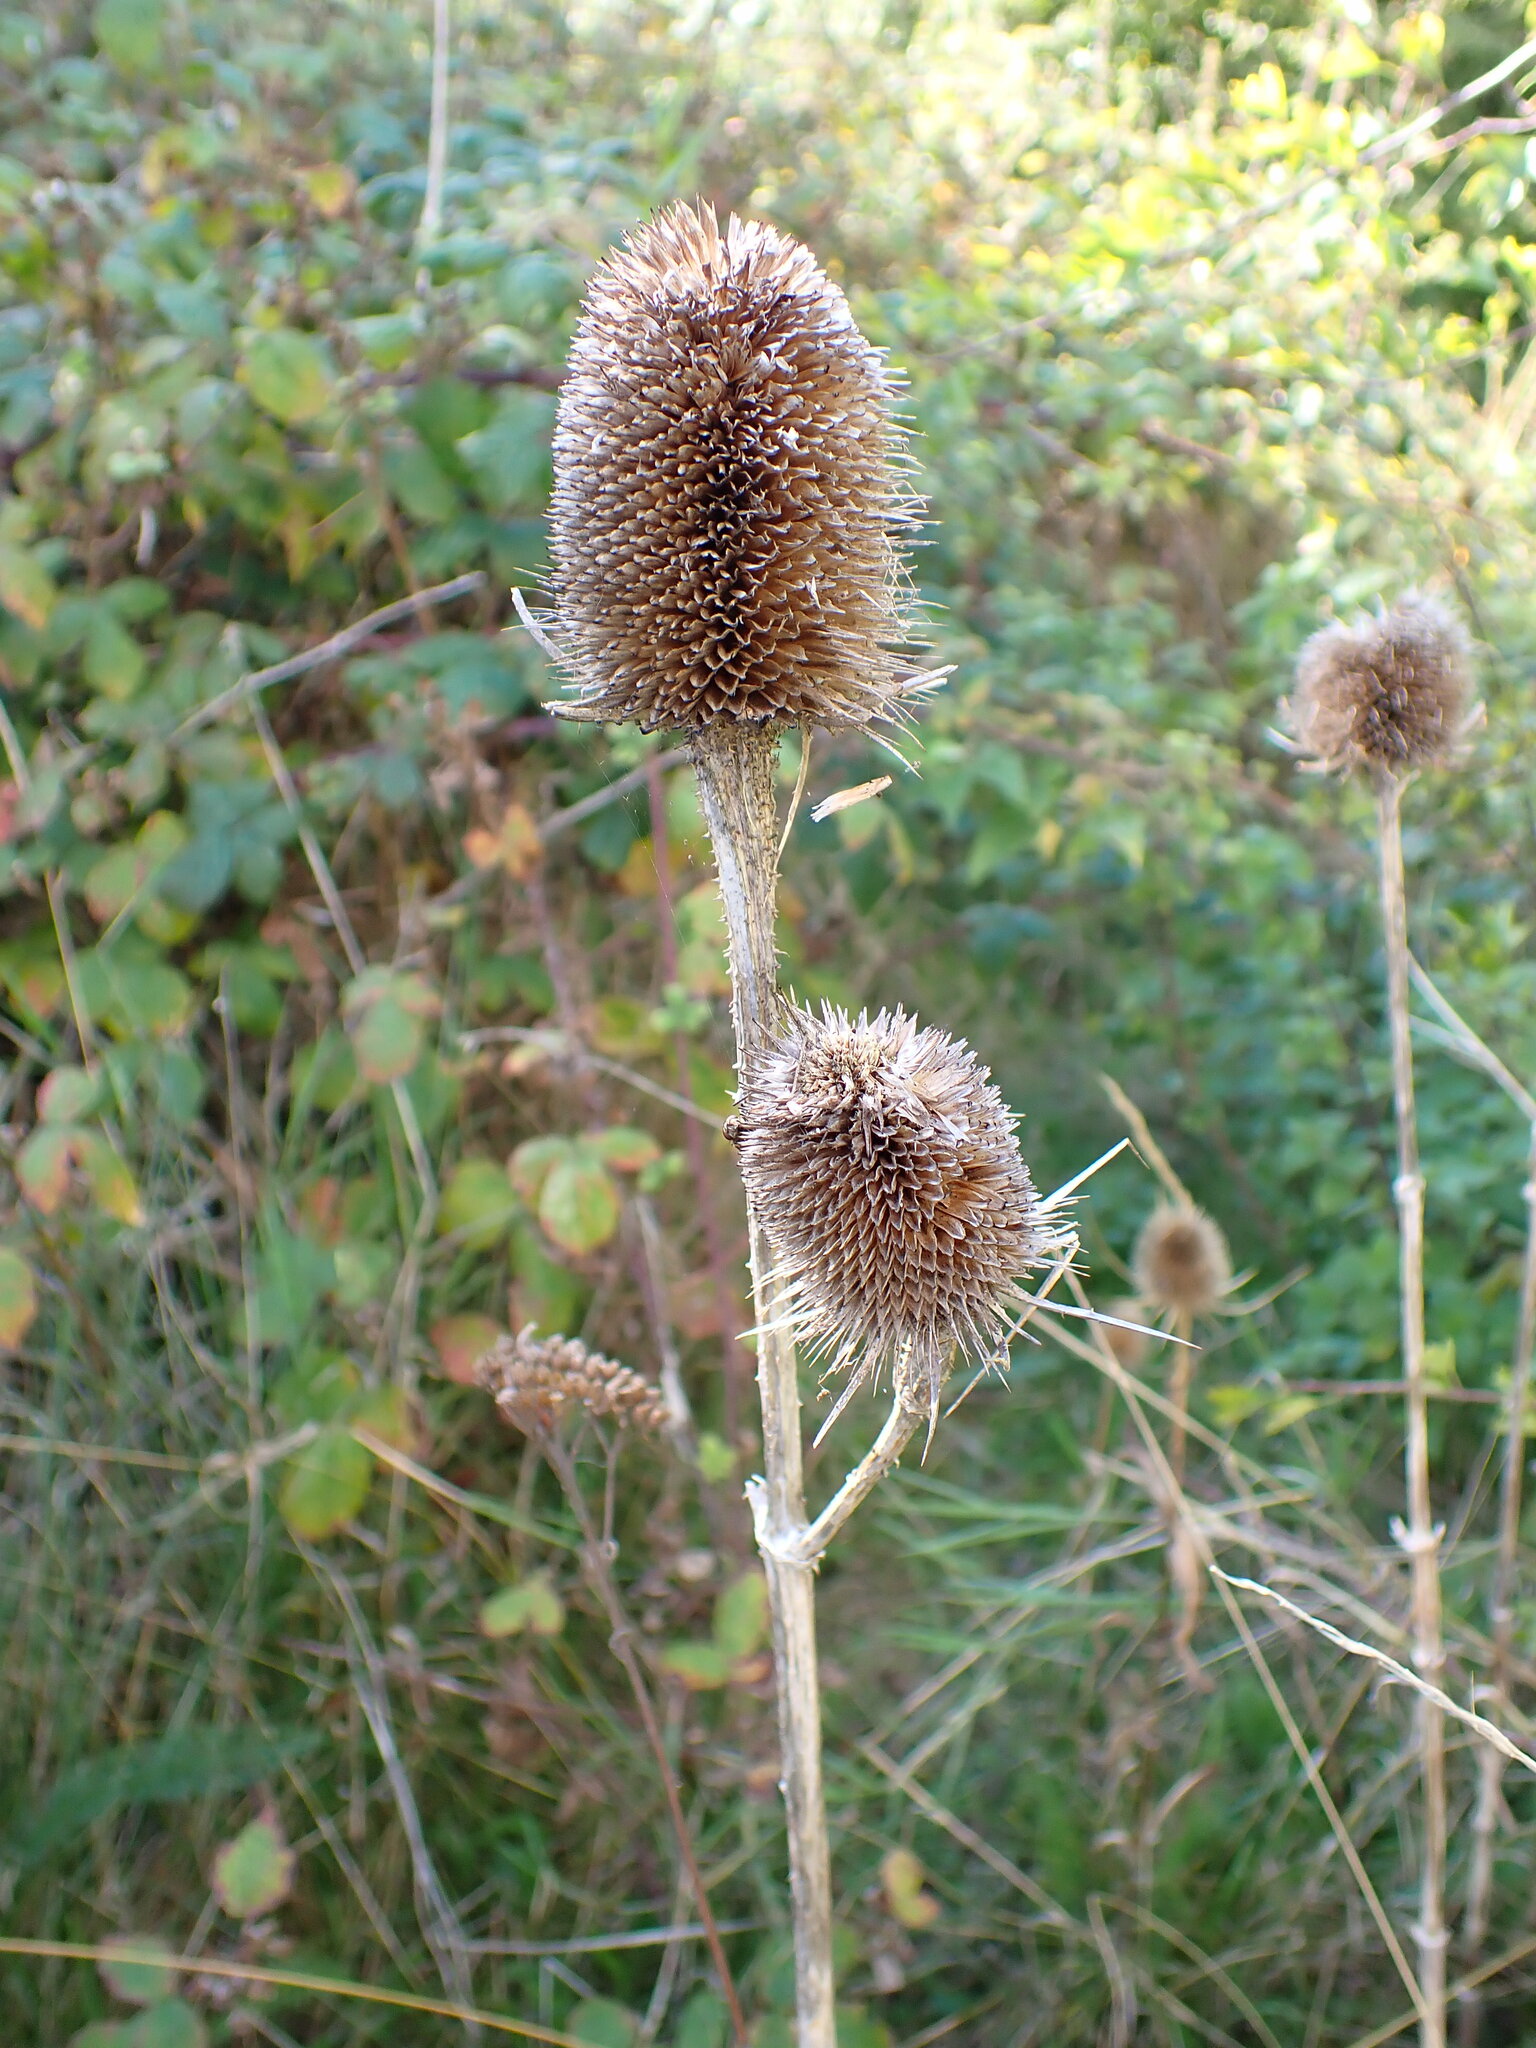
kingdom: Plantae
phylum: Tracheophyta
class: Magnoliopsida
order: Dipsacales
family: Caprifoliaceae
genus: Dipsacus
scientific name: Dipsacus fullonum
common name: Teasel
